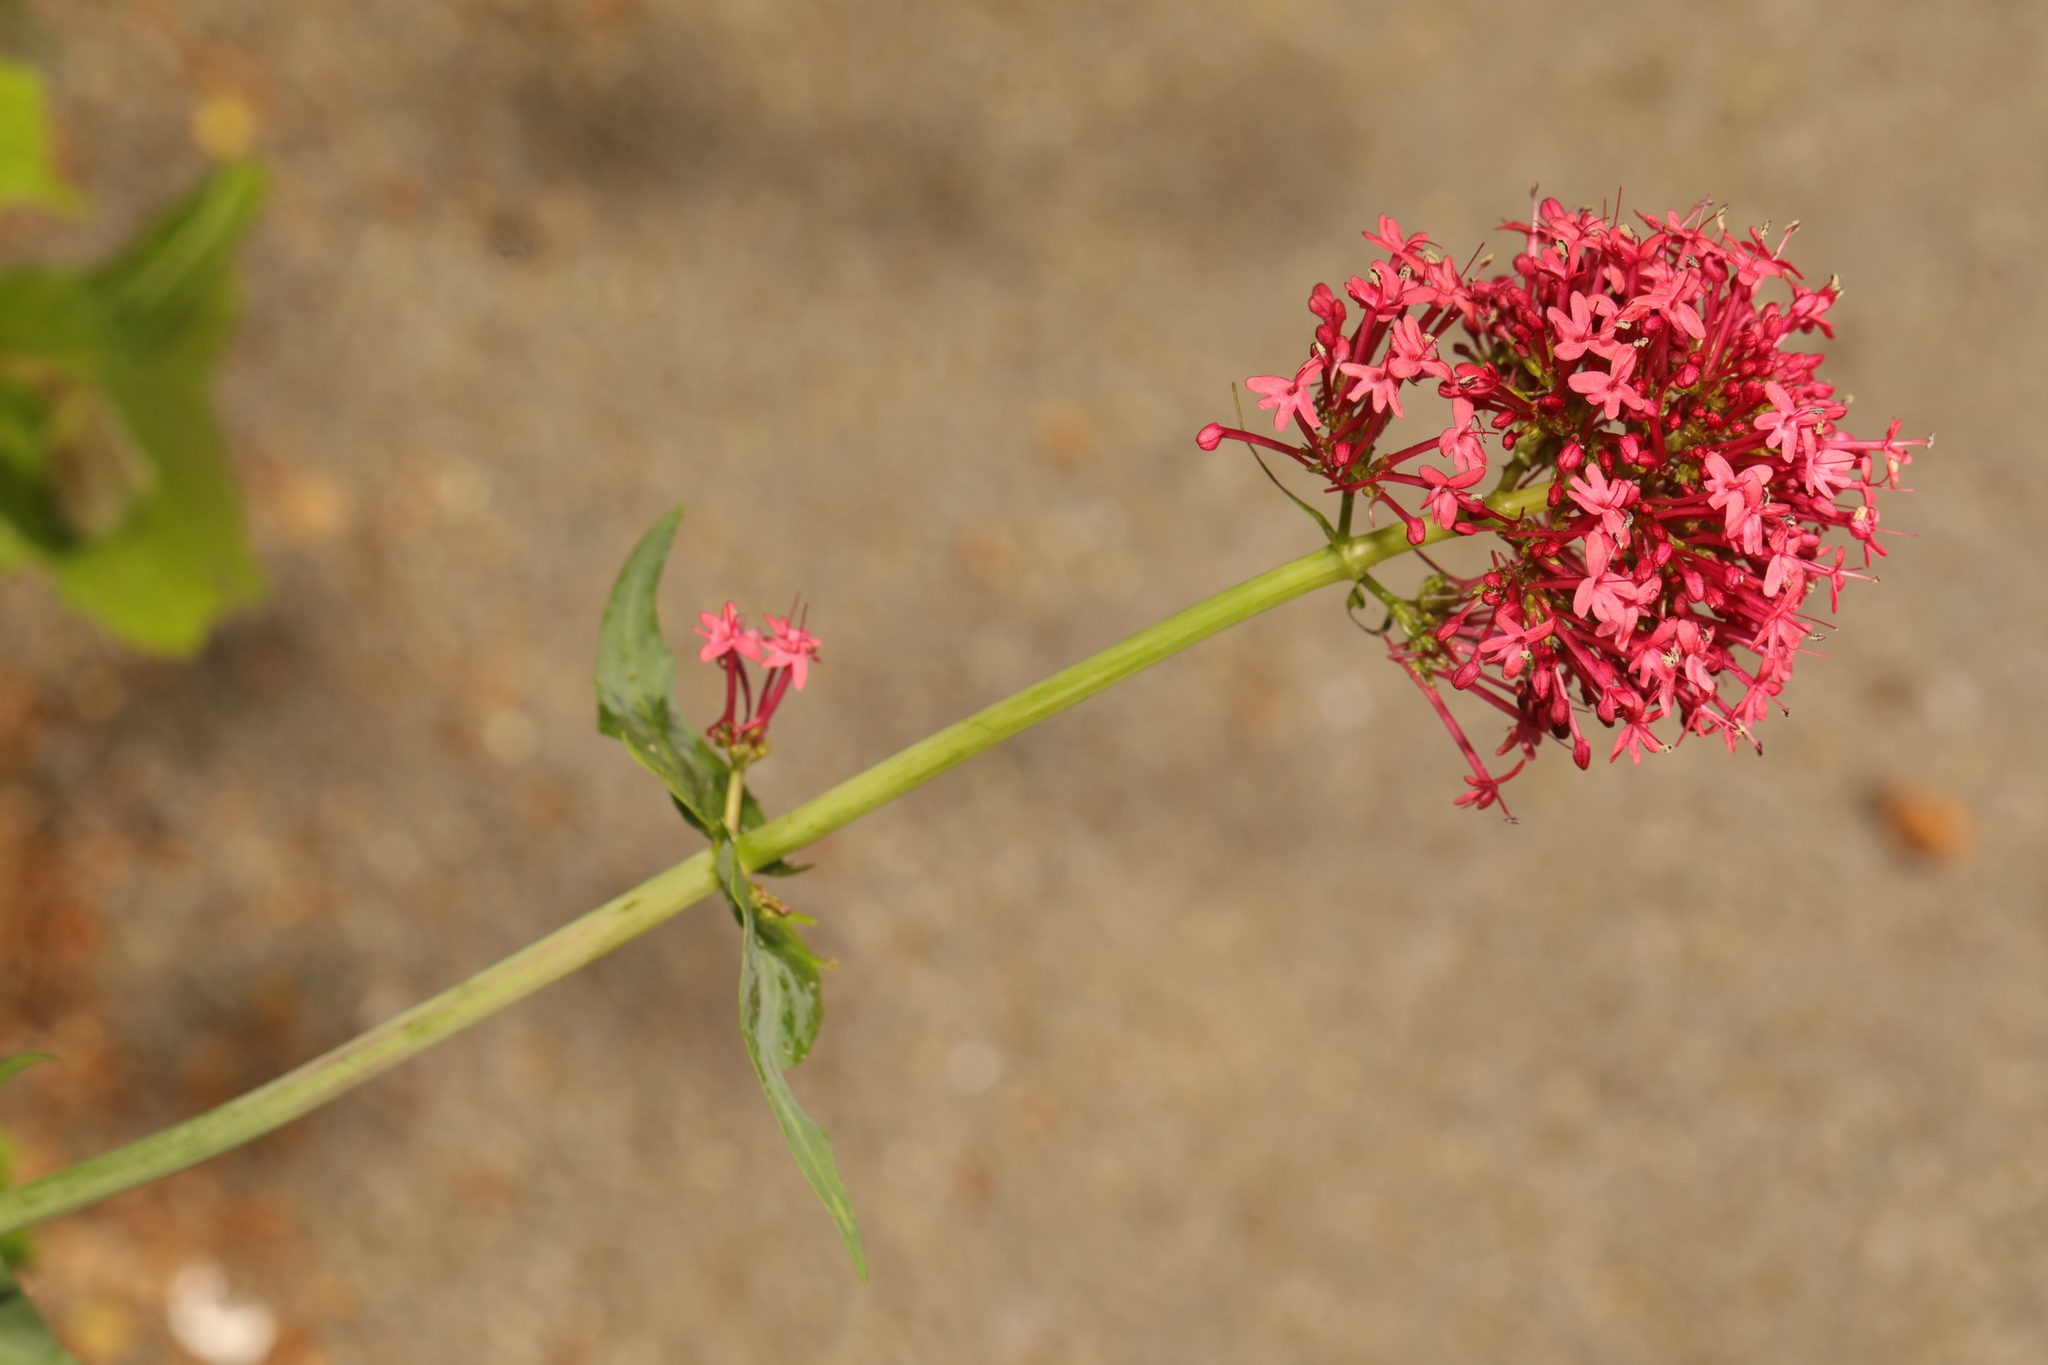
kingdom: Plantae
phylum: Tracheophyta
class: Magnoliopsida
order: Dipsacales
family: Caprifoliaceae
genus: Centranthus
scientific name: Centranthus ruber
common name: Red valerian
